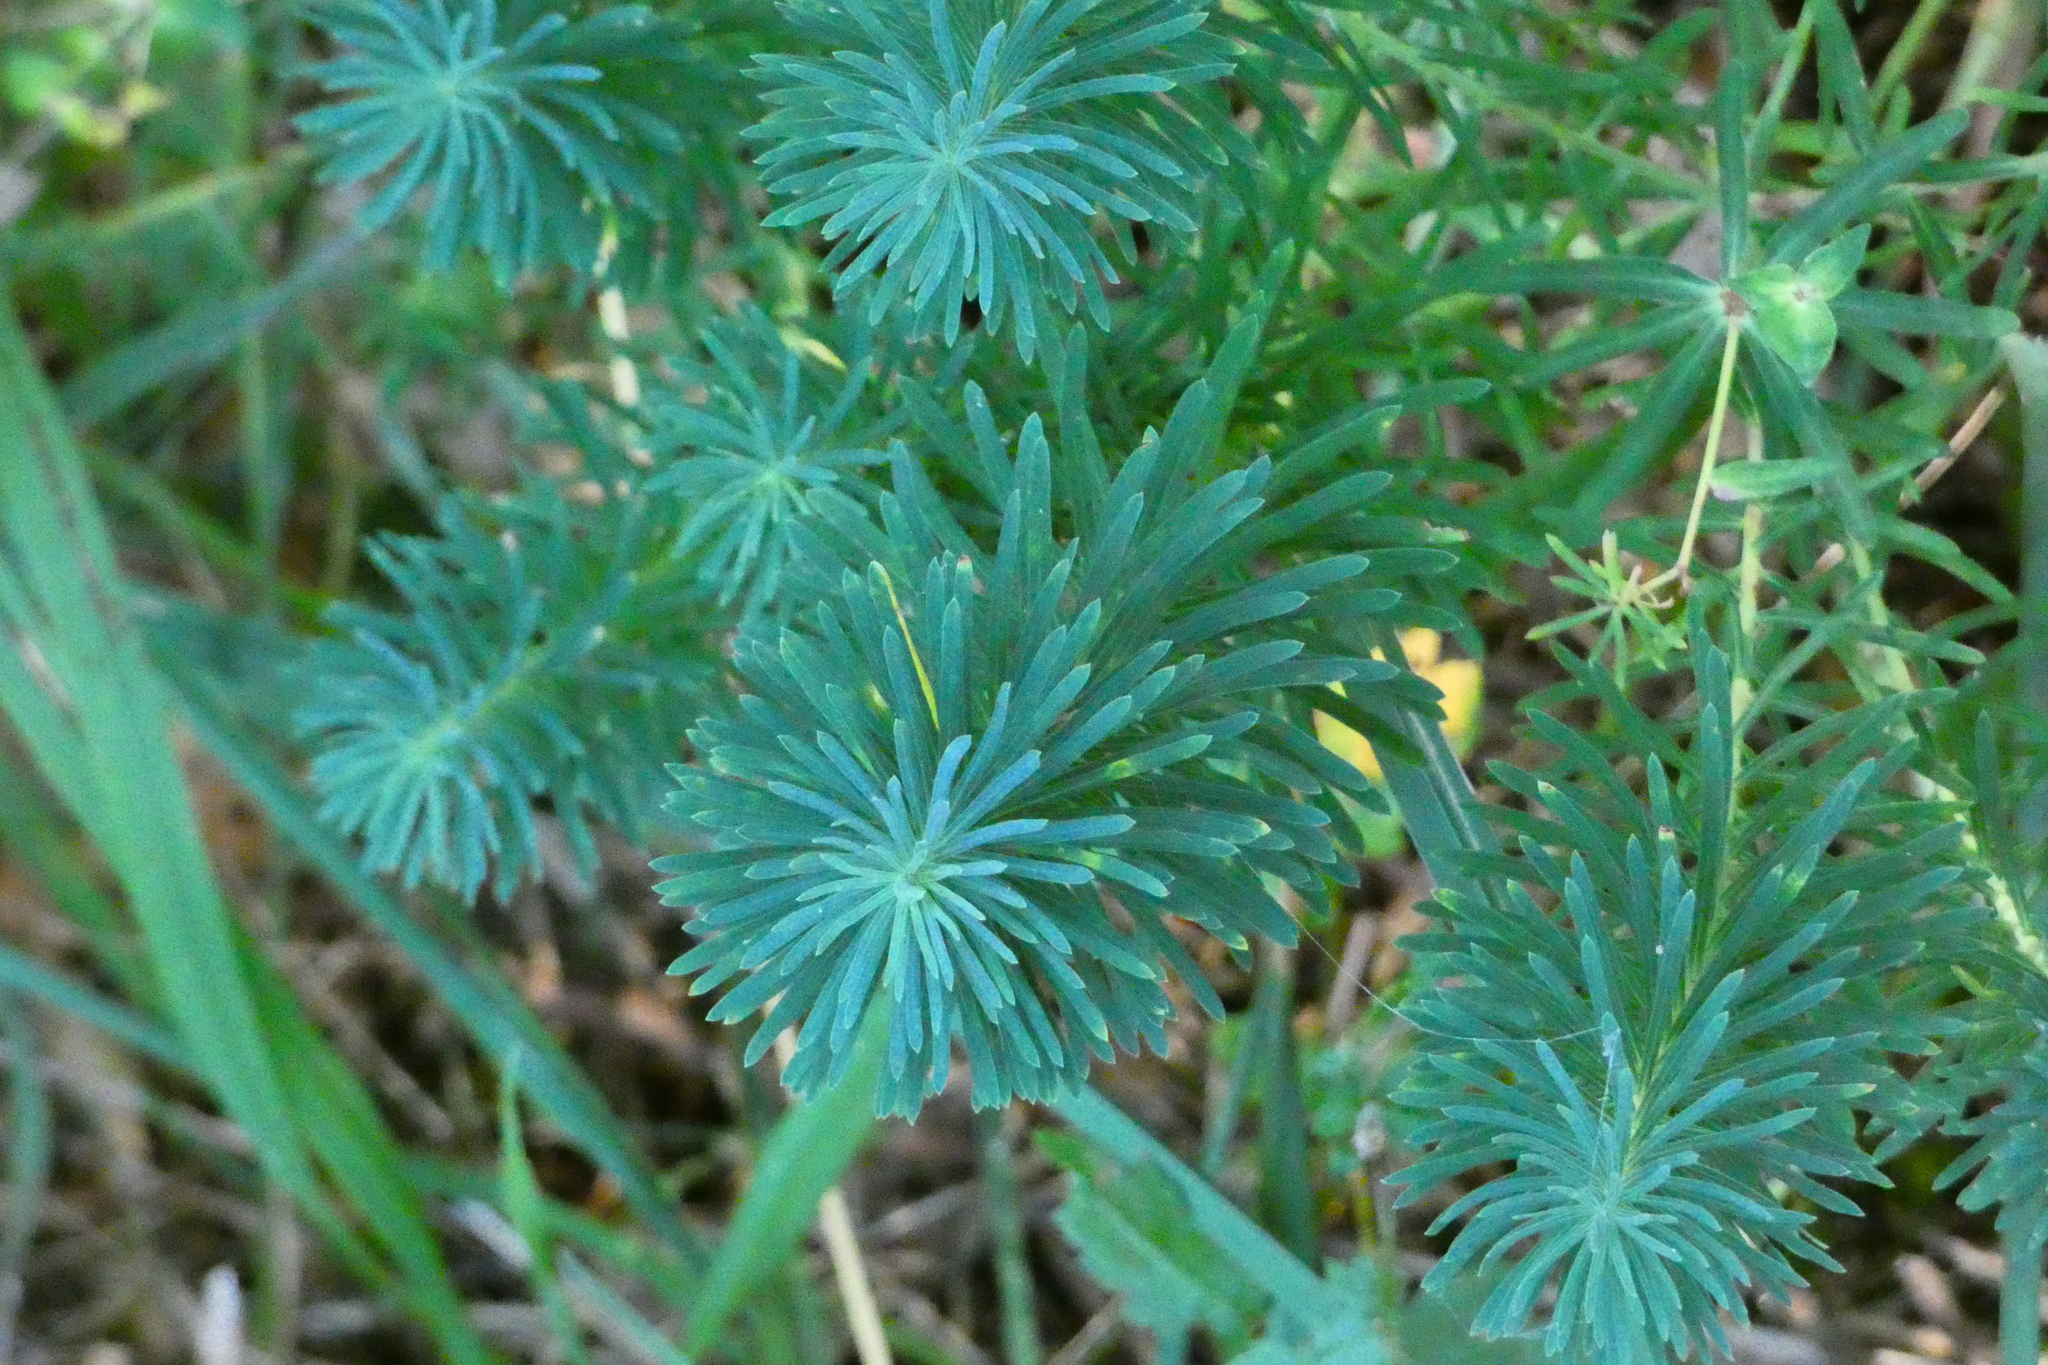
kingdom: Plantae
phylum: Tracheophyta
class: Magnoliopsida
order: Malpighiales
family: Euphorbiaceae
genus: Euphorbia
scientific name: Euphorbia cyparissias
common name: Cypress spurge
